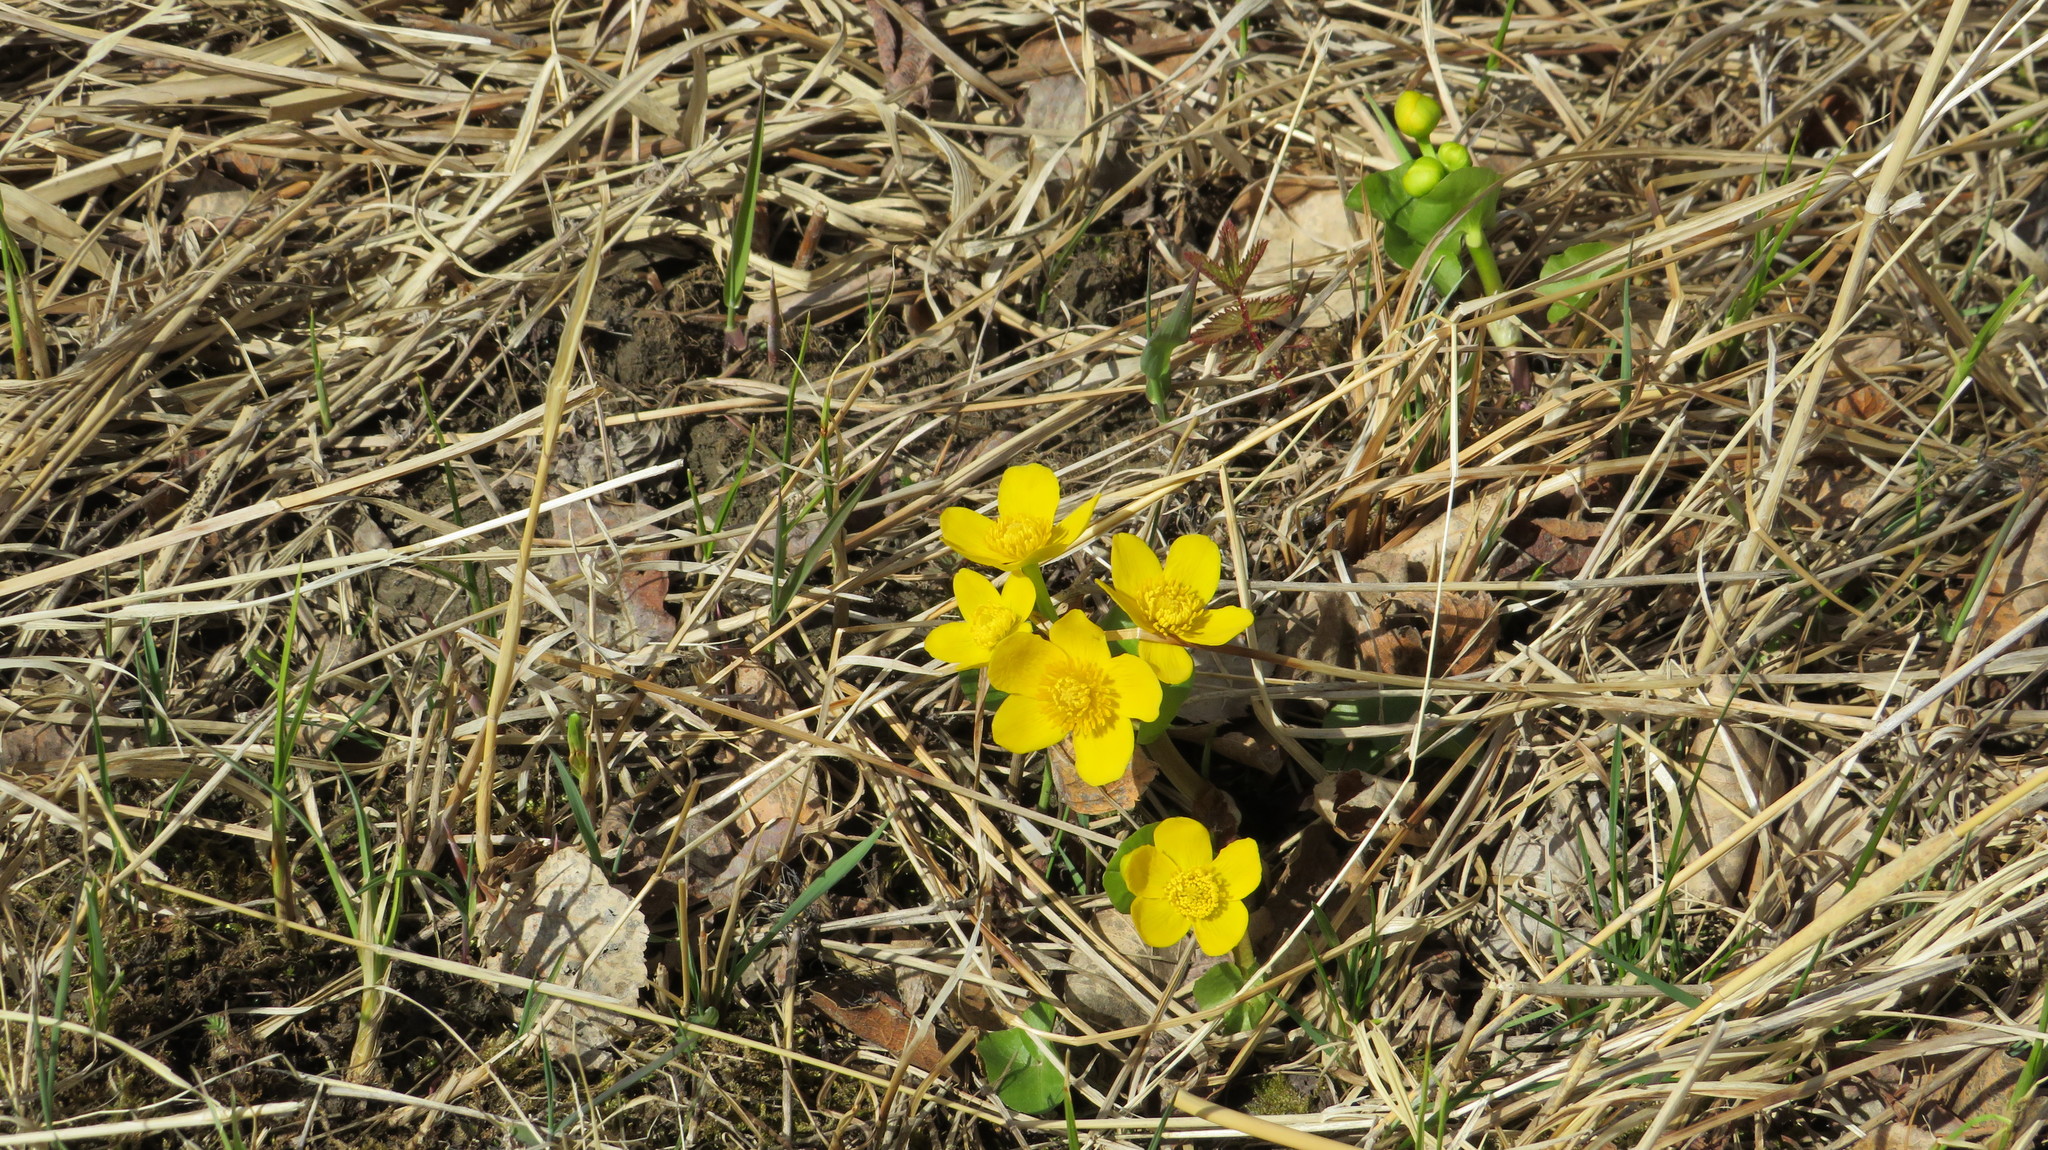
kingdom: Plantae
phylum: Tracheophyta
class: Magnoliopsida
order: Ranunculales
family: Ranunculaceae
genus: Caltha
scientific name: Caltha palustris
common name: Marsh marigold
